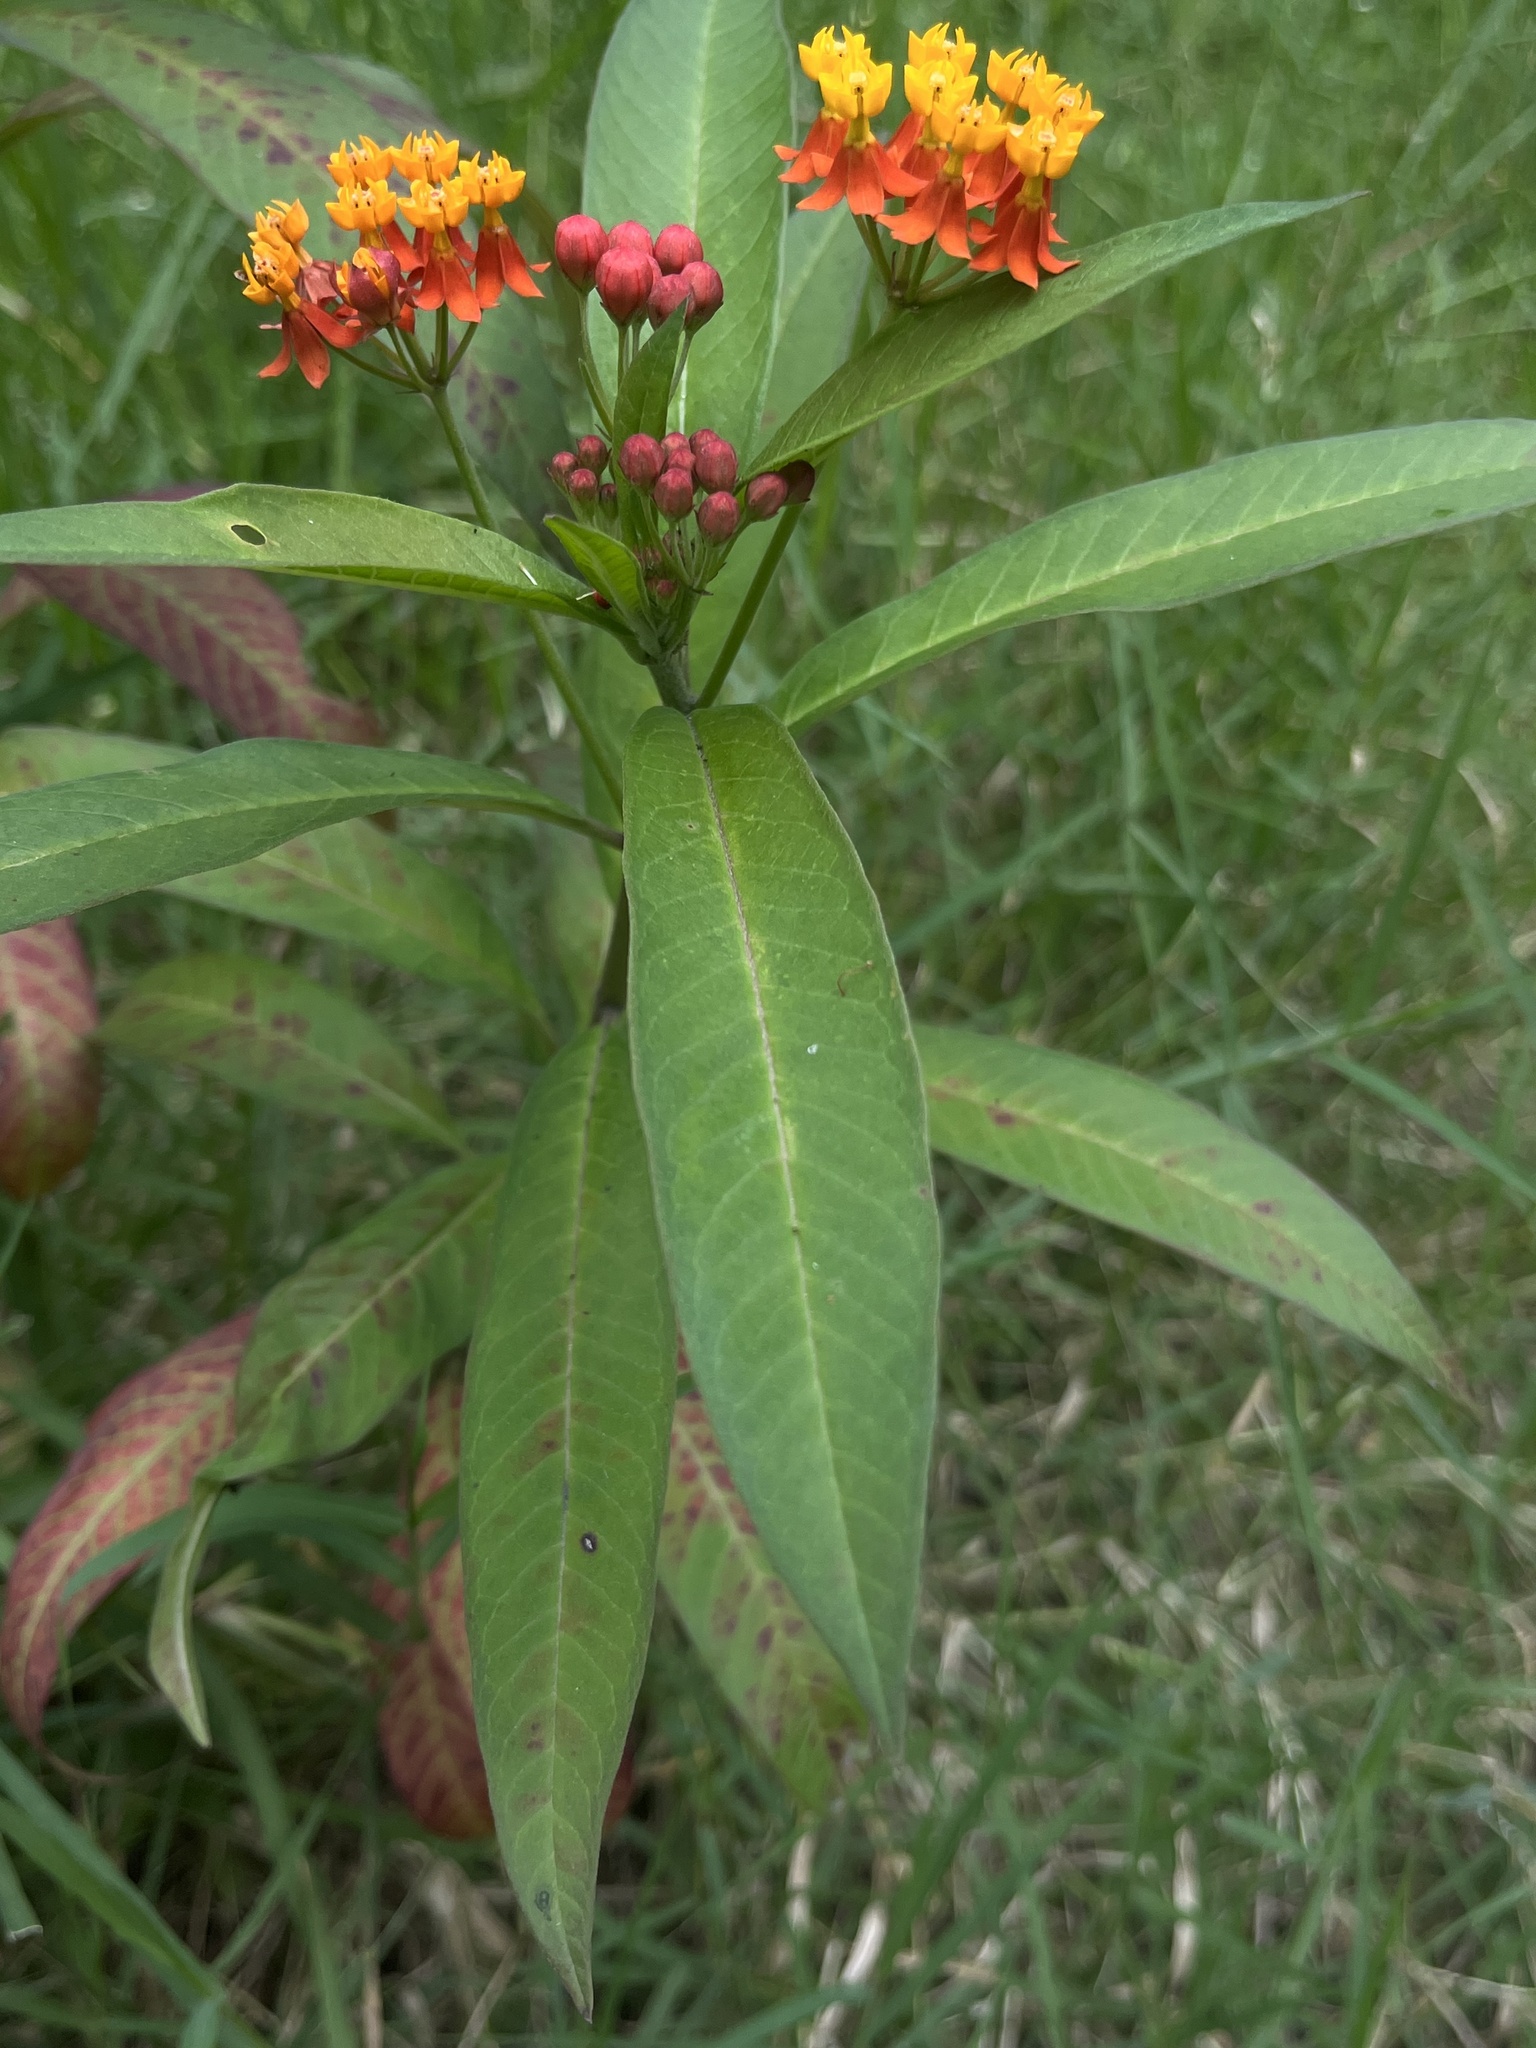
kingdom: Plantae
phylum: Tracheophyta
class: Magnoliopsida
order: Gentianales
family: Apocynaceae
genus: Asclepias
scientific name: Asclepias curassavica
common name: Bloodflower
